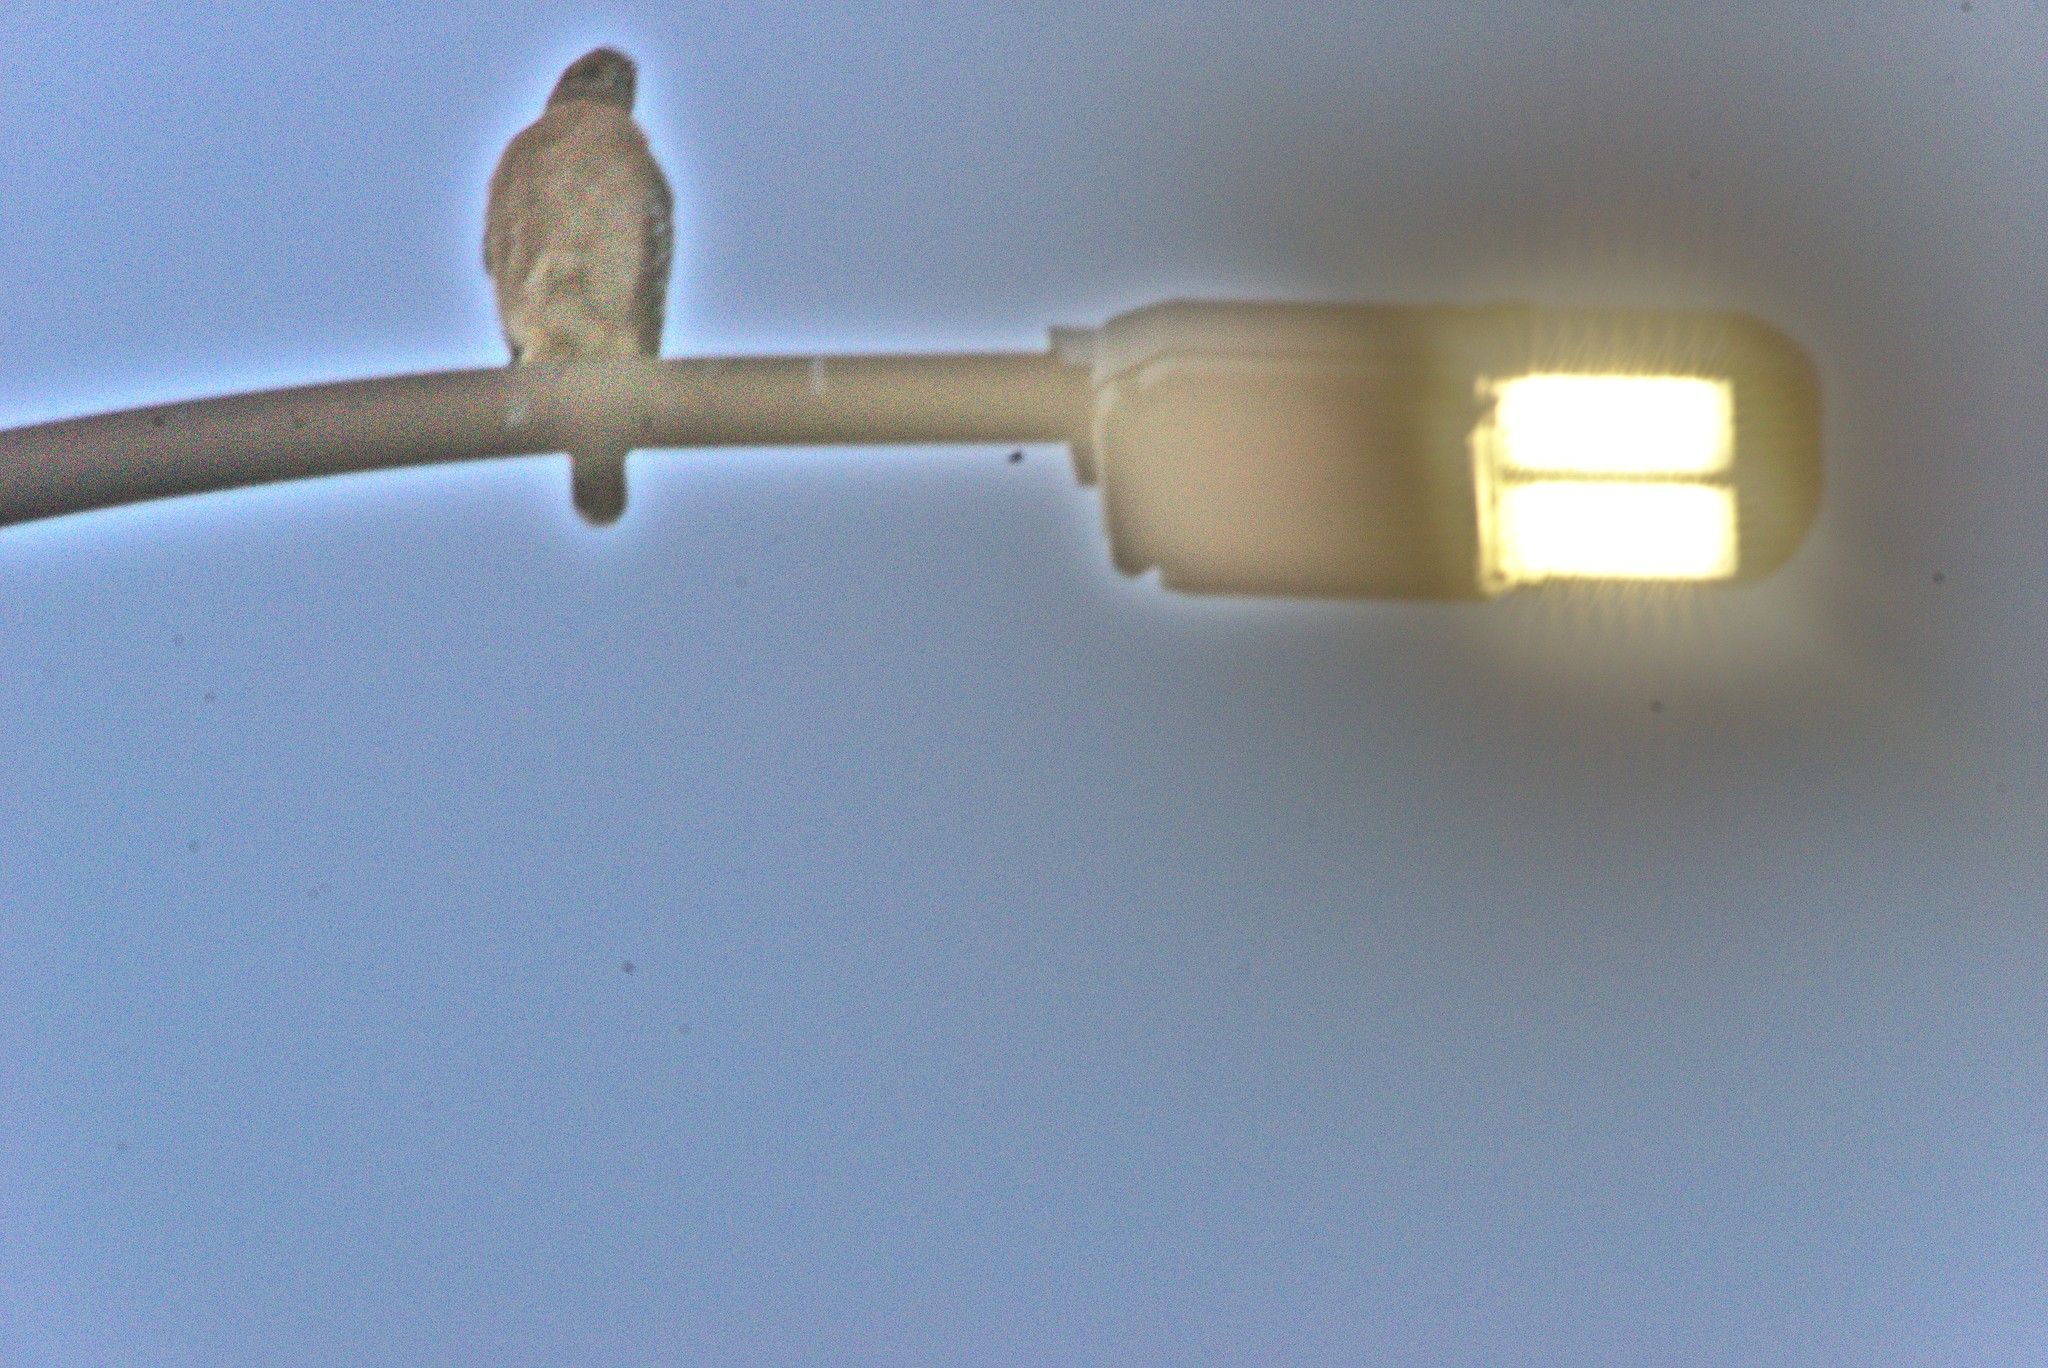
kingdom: Animalia
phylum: Chordata
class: Aves
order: Accipitriformes
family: Accipitridae
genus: Buteo
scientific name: Buteo lineatus
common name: Red-shouldered hawk
